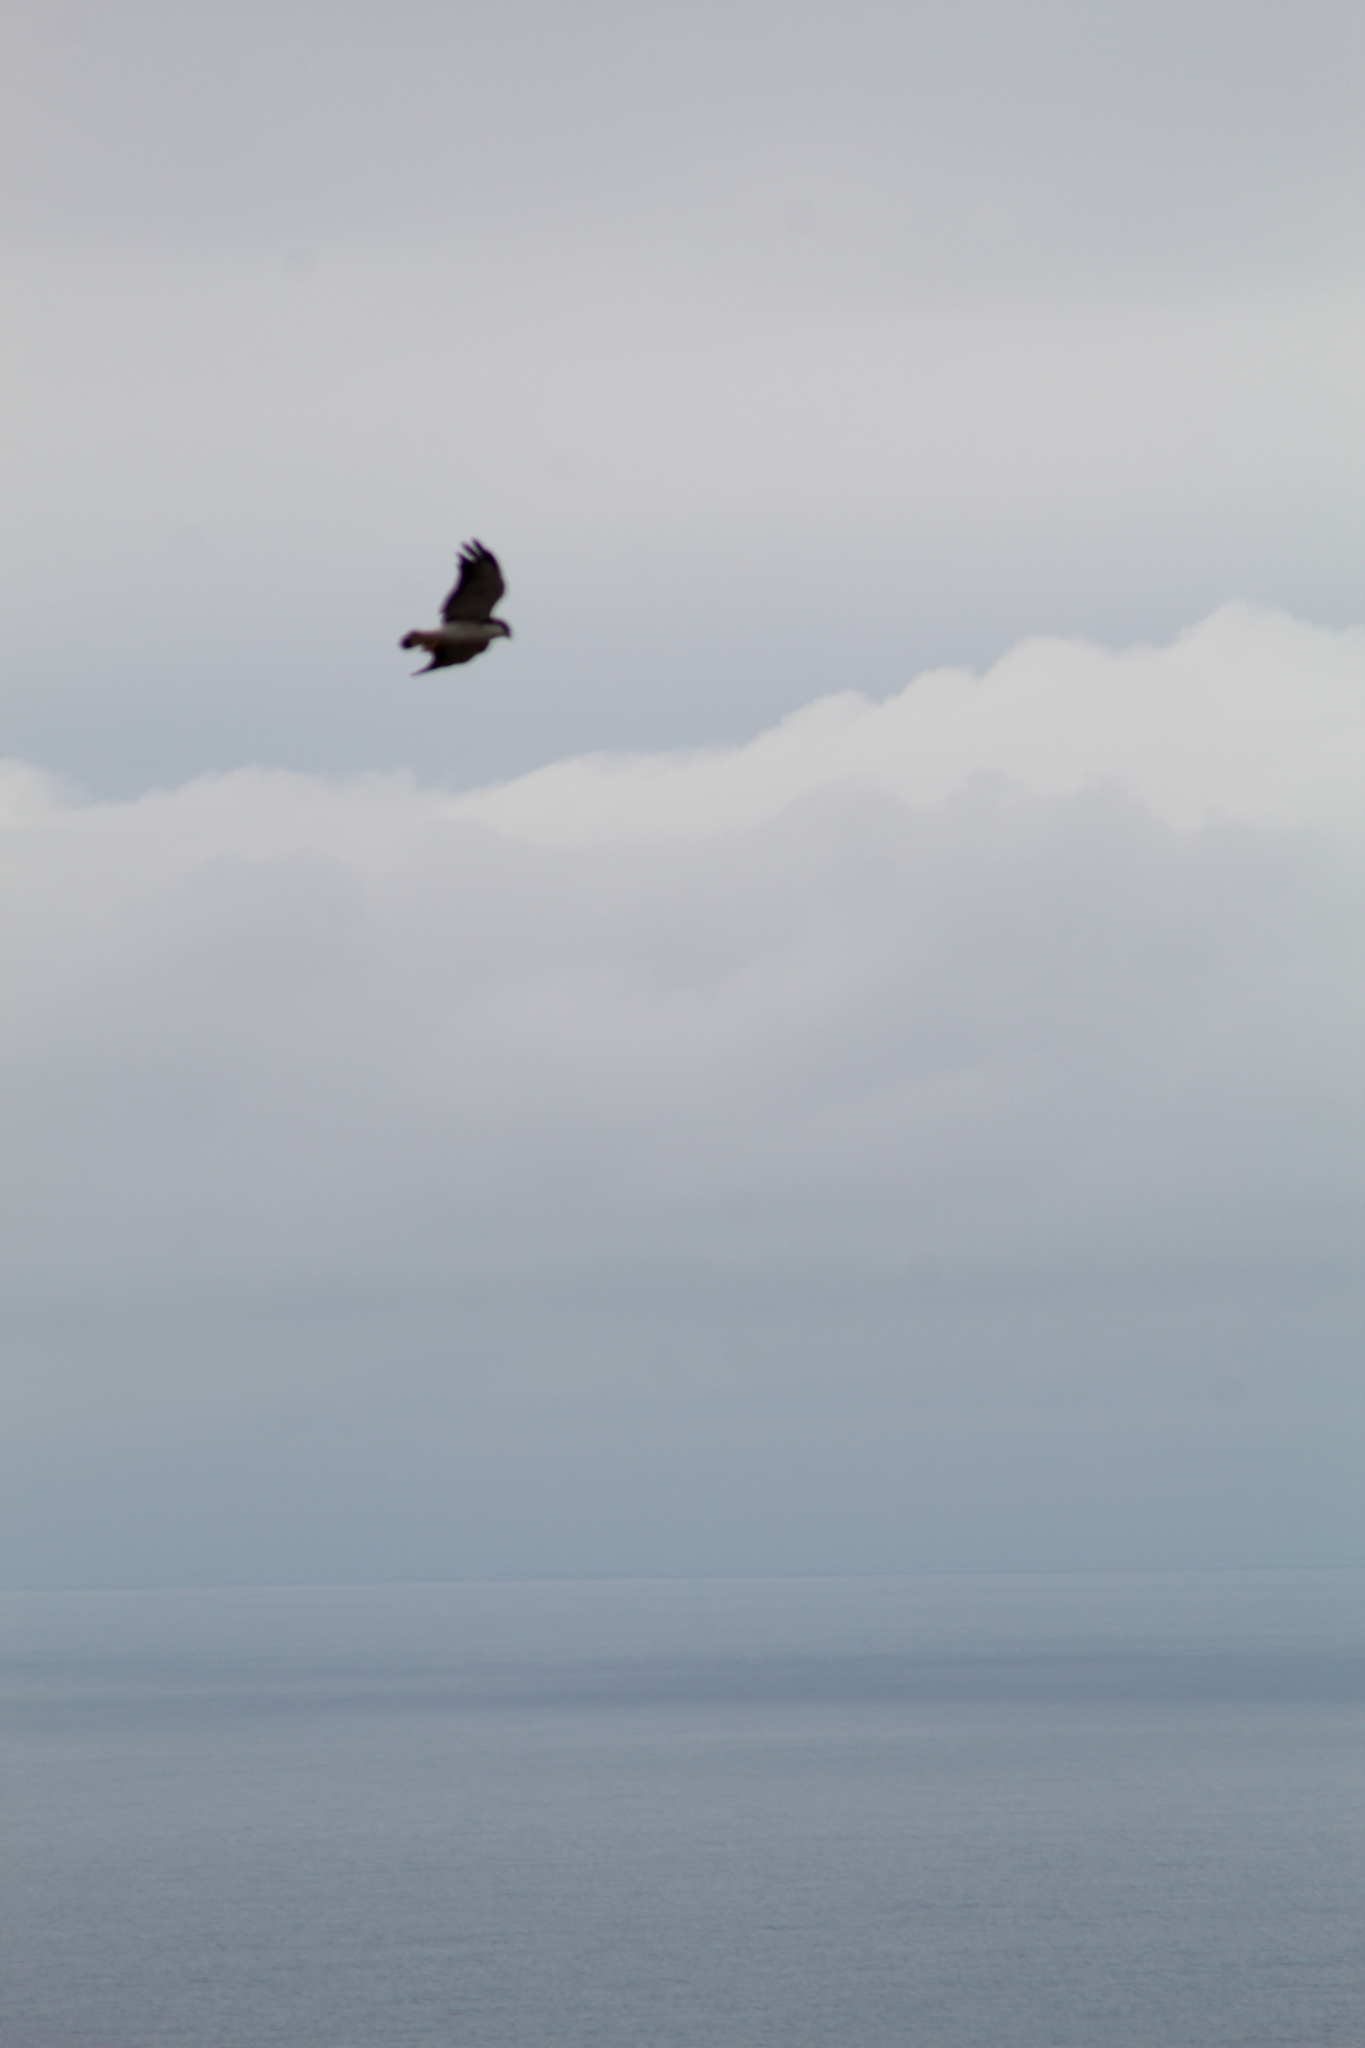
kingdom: Animalia
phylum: Chordata
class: Aves
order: Accipitriformes
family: Accipitridae
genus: Buteo
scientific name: Buteo polyosoma
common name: Variable hawk
